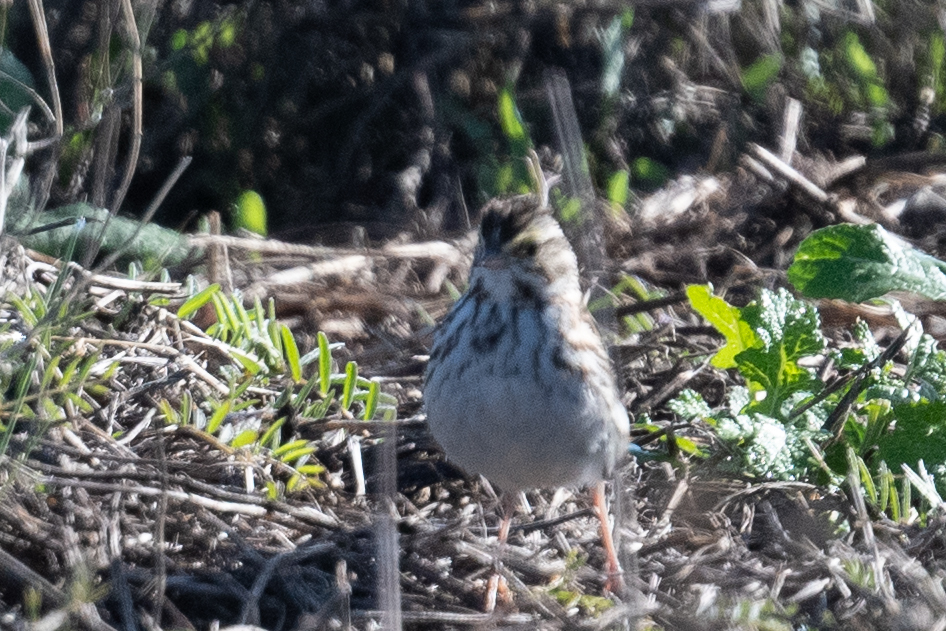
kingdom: Animalia
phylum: Chordata
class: Aves
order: Passeriformes
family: Passerellidae
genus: Passerculus
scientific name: Passerculus sandwichensis
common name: Savannah sparrow
